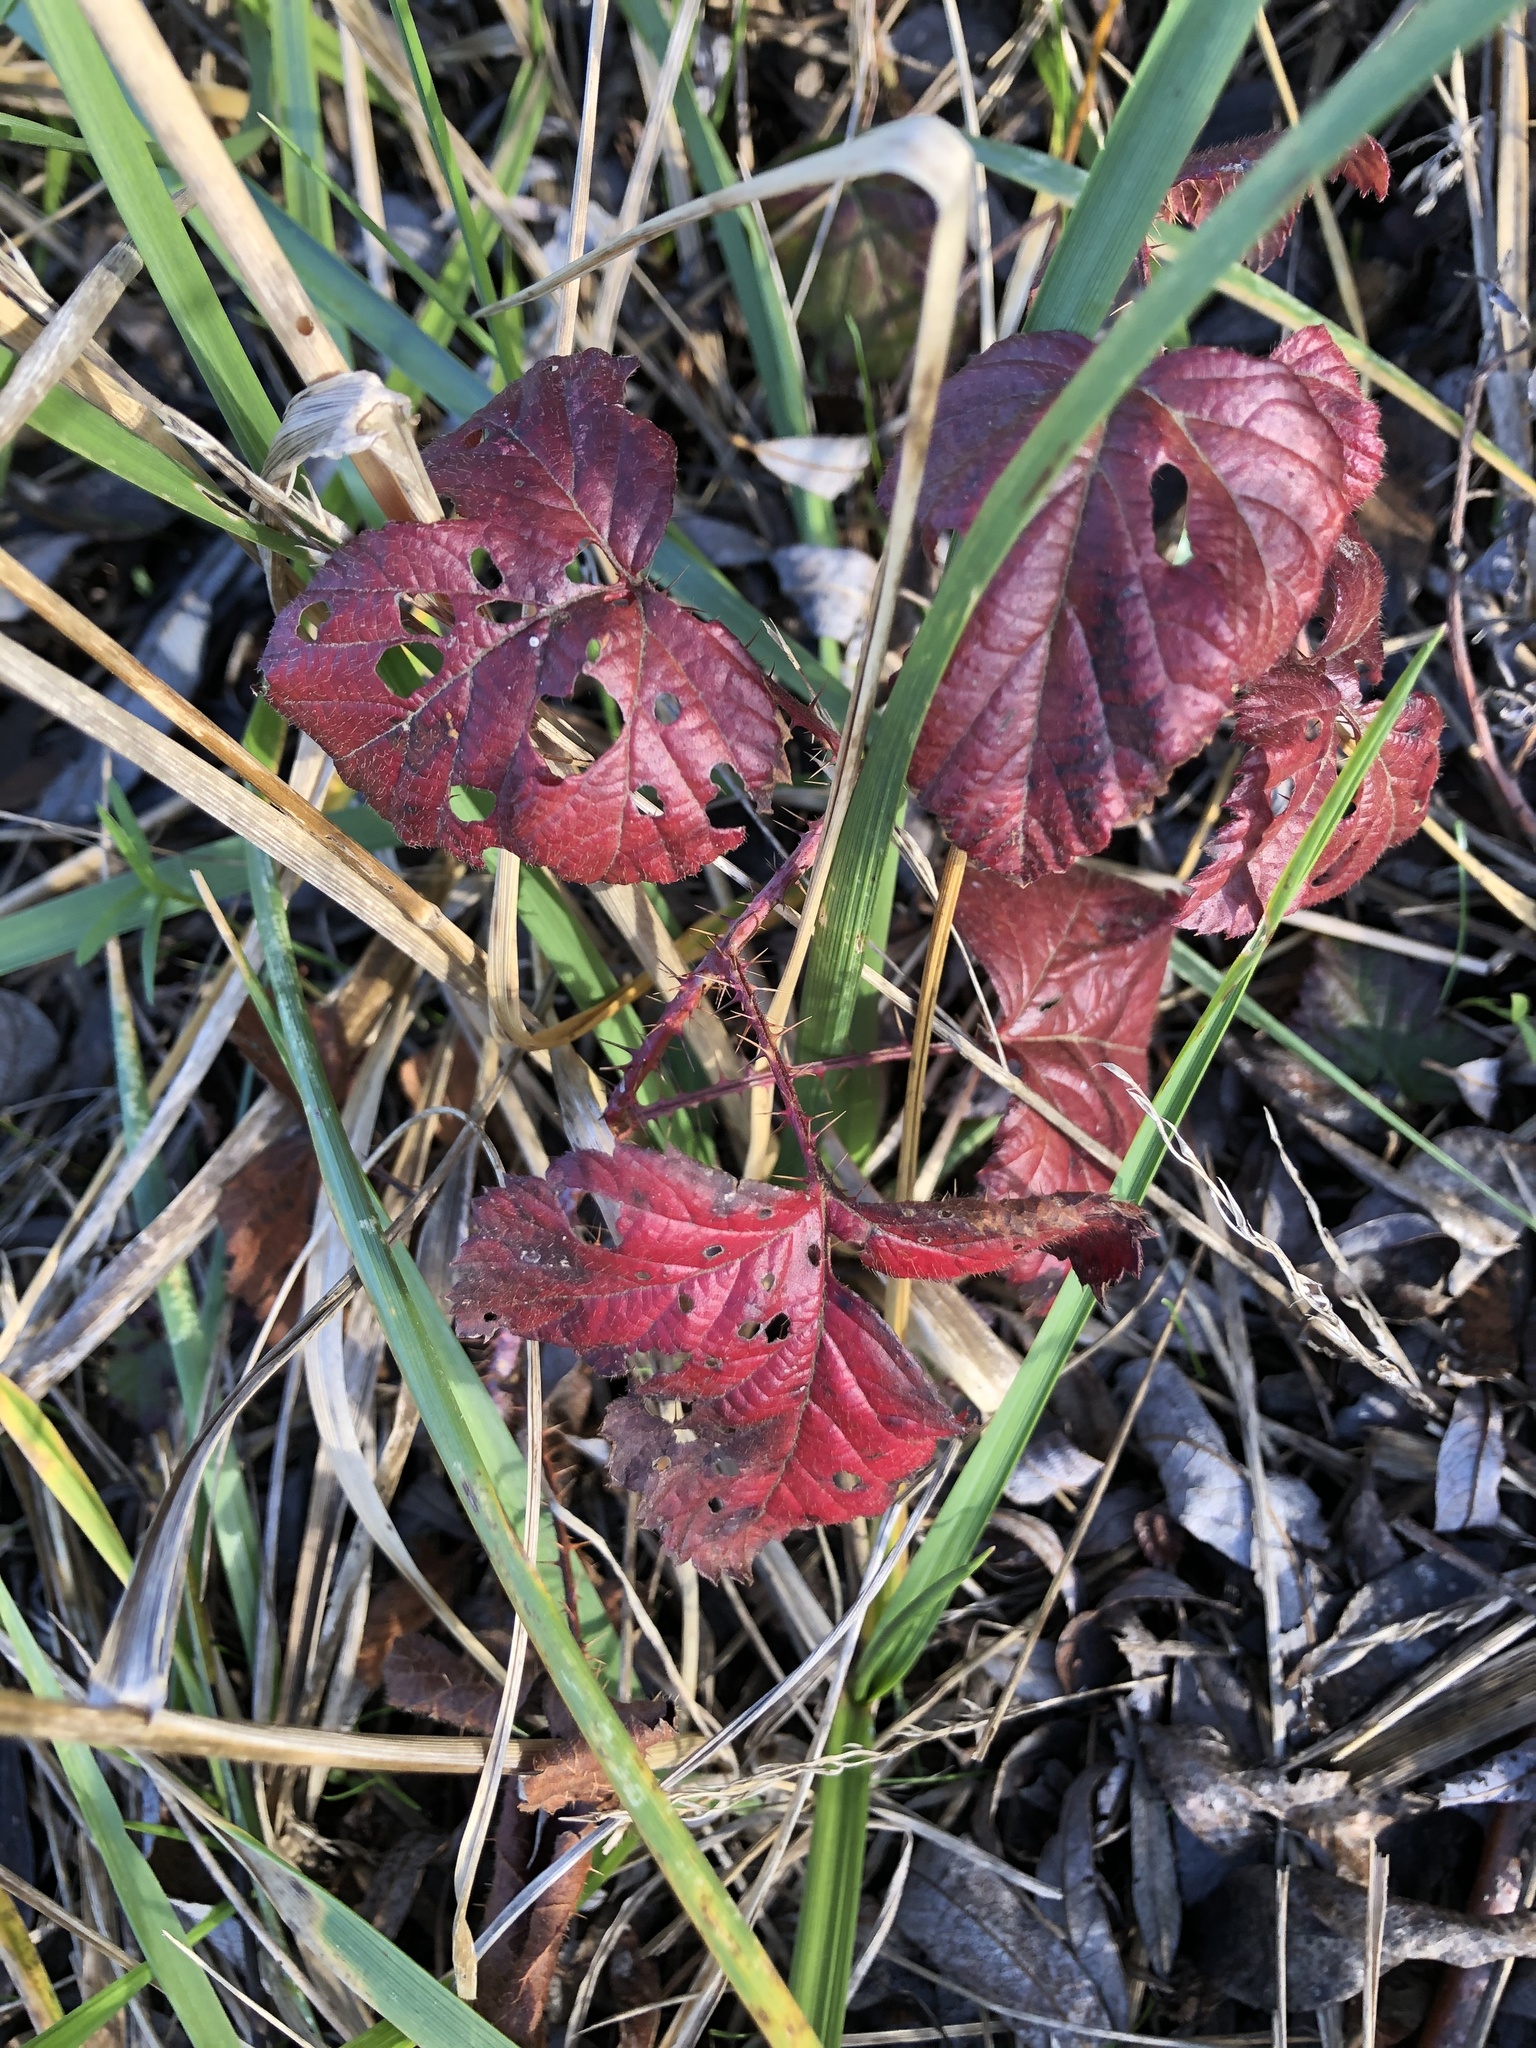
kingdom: Plantae
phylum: Tracheophyta
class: Magnoliopsida
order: Rosales
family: Rosaceae
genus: Rubus
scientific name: Rubus ursinus
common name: Pacific blackberry
